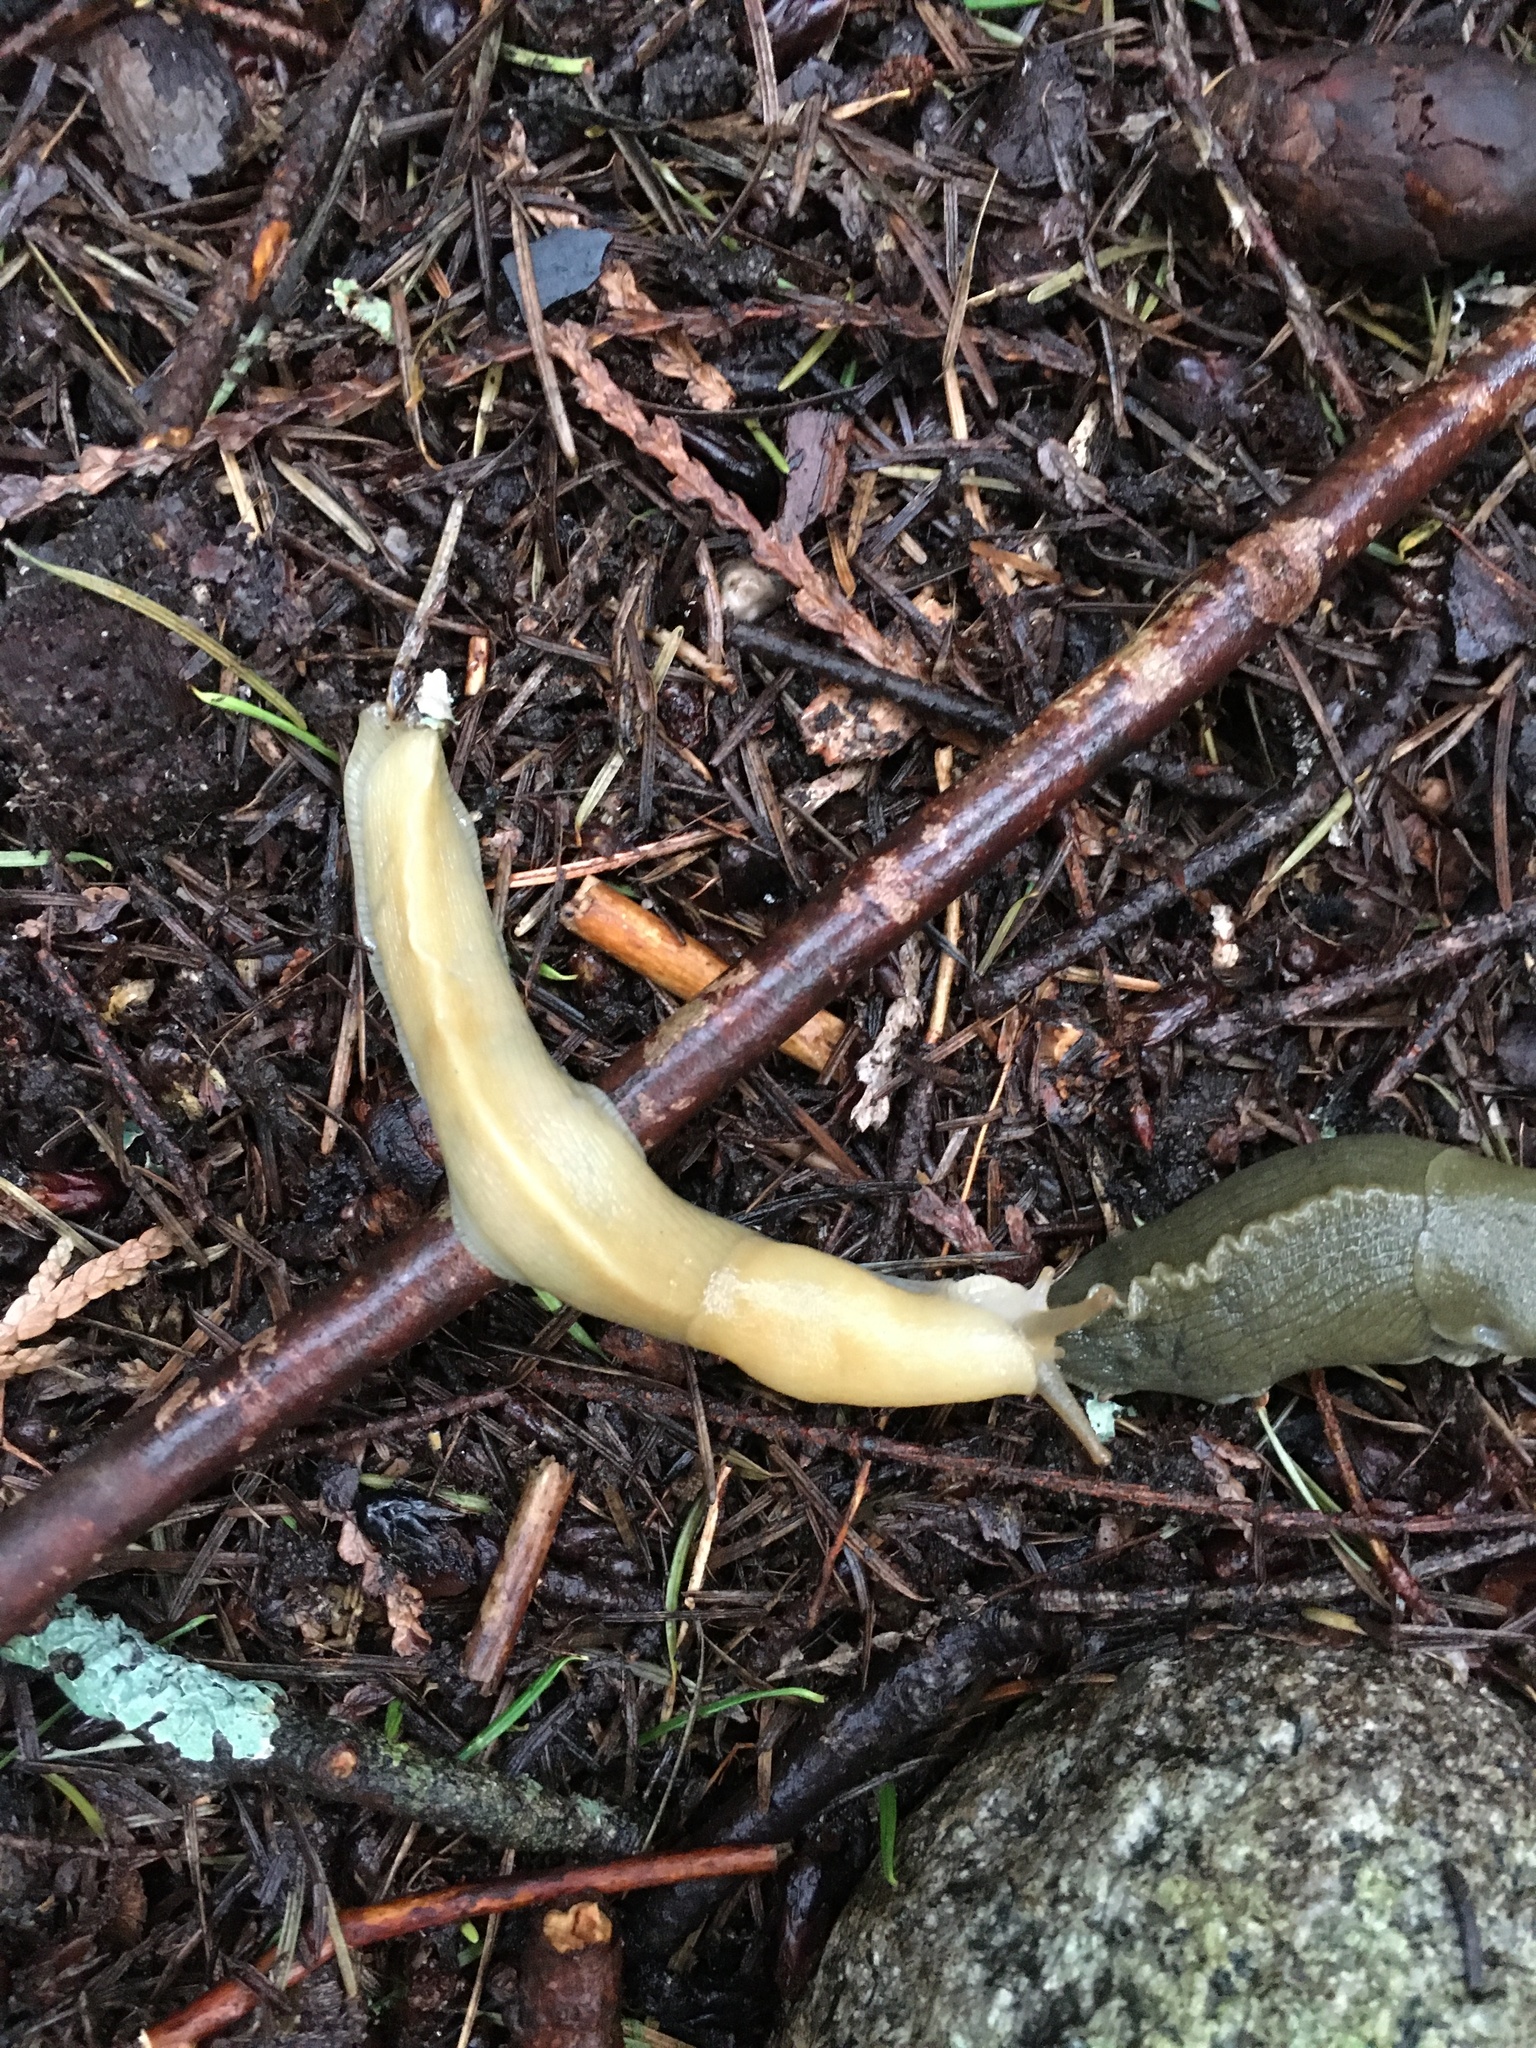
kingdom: Animalia
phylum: Mollusca
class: Gastropoda
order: Stylommatophora
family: Ariolimacidae
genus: Ariolimax
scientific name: Ariolimax columbianus
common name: Pacific banana slug
